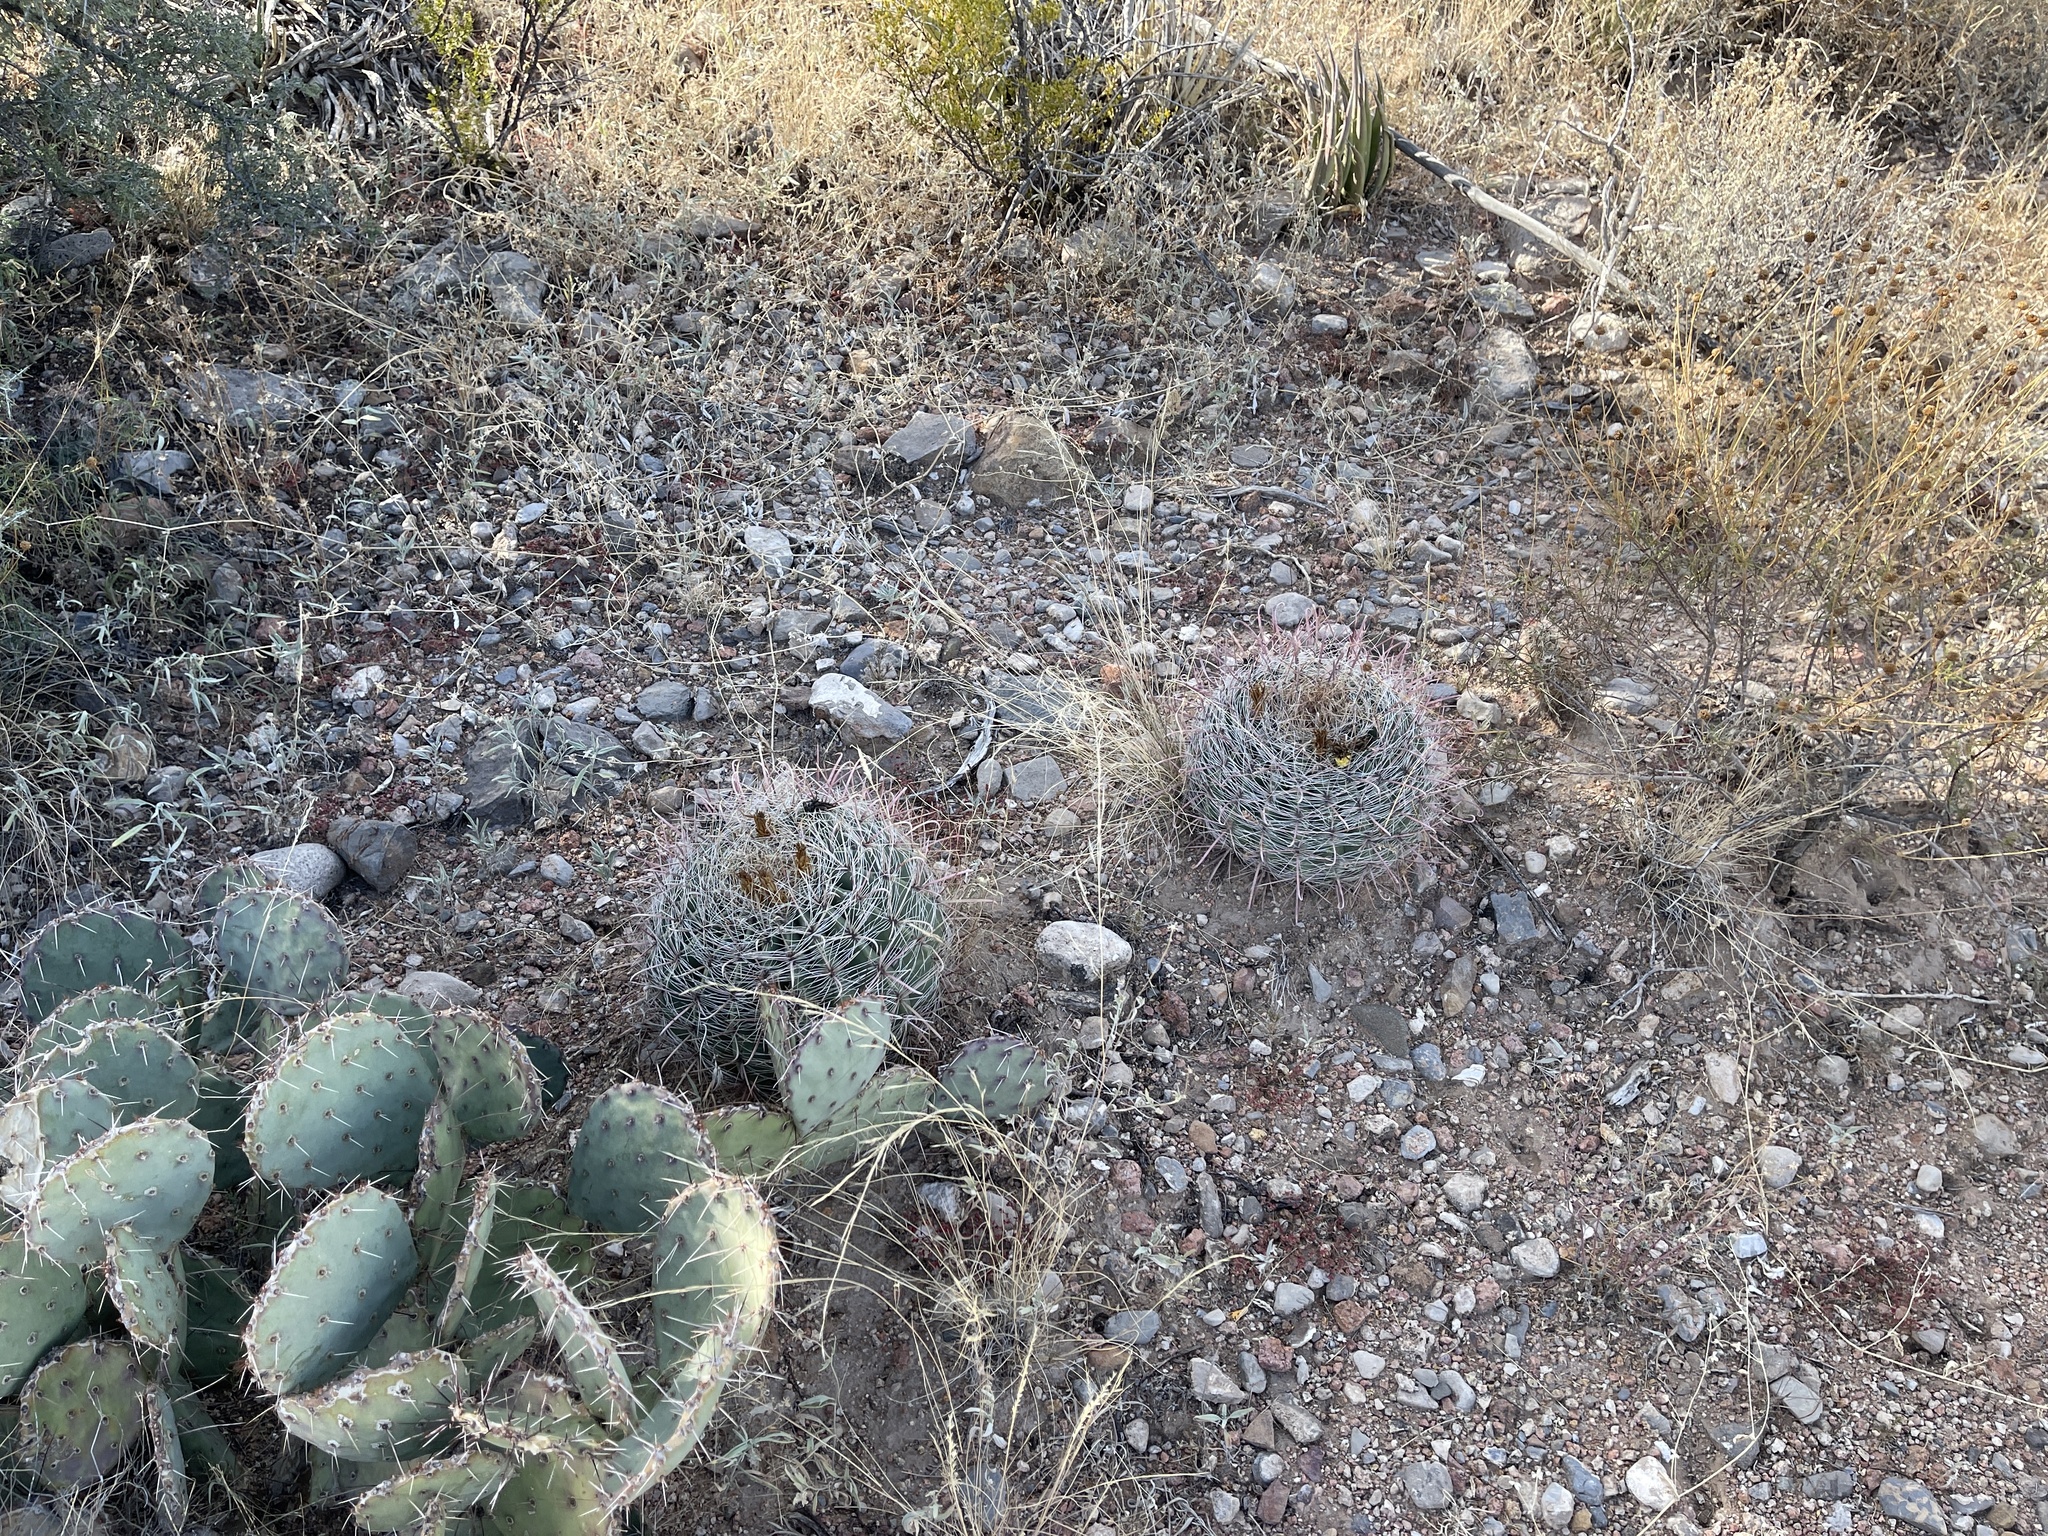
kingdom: Plantae
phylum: Tracheophyta
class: Magnoliopsida
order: Caryophyllales
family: Cactaceae
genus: Ferocactus
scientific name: Ferocactus wislizeni
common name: Candy barrel cactus
